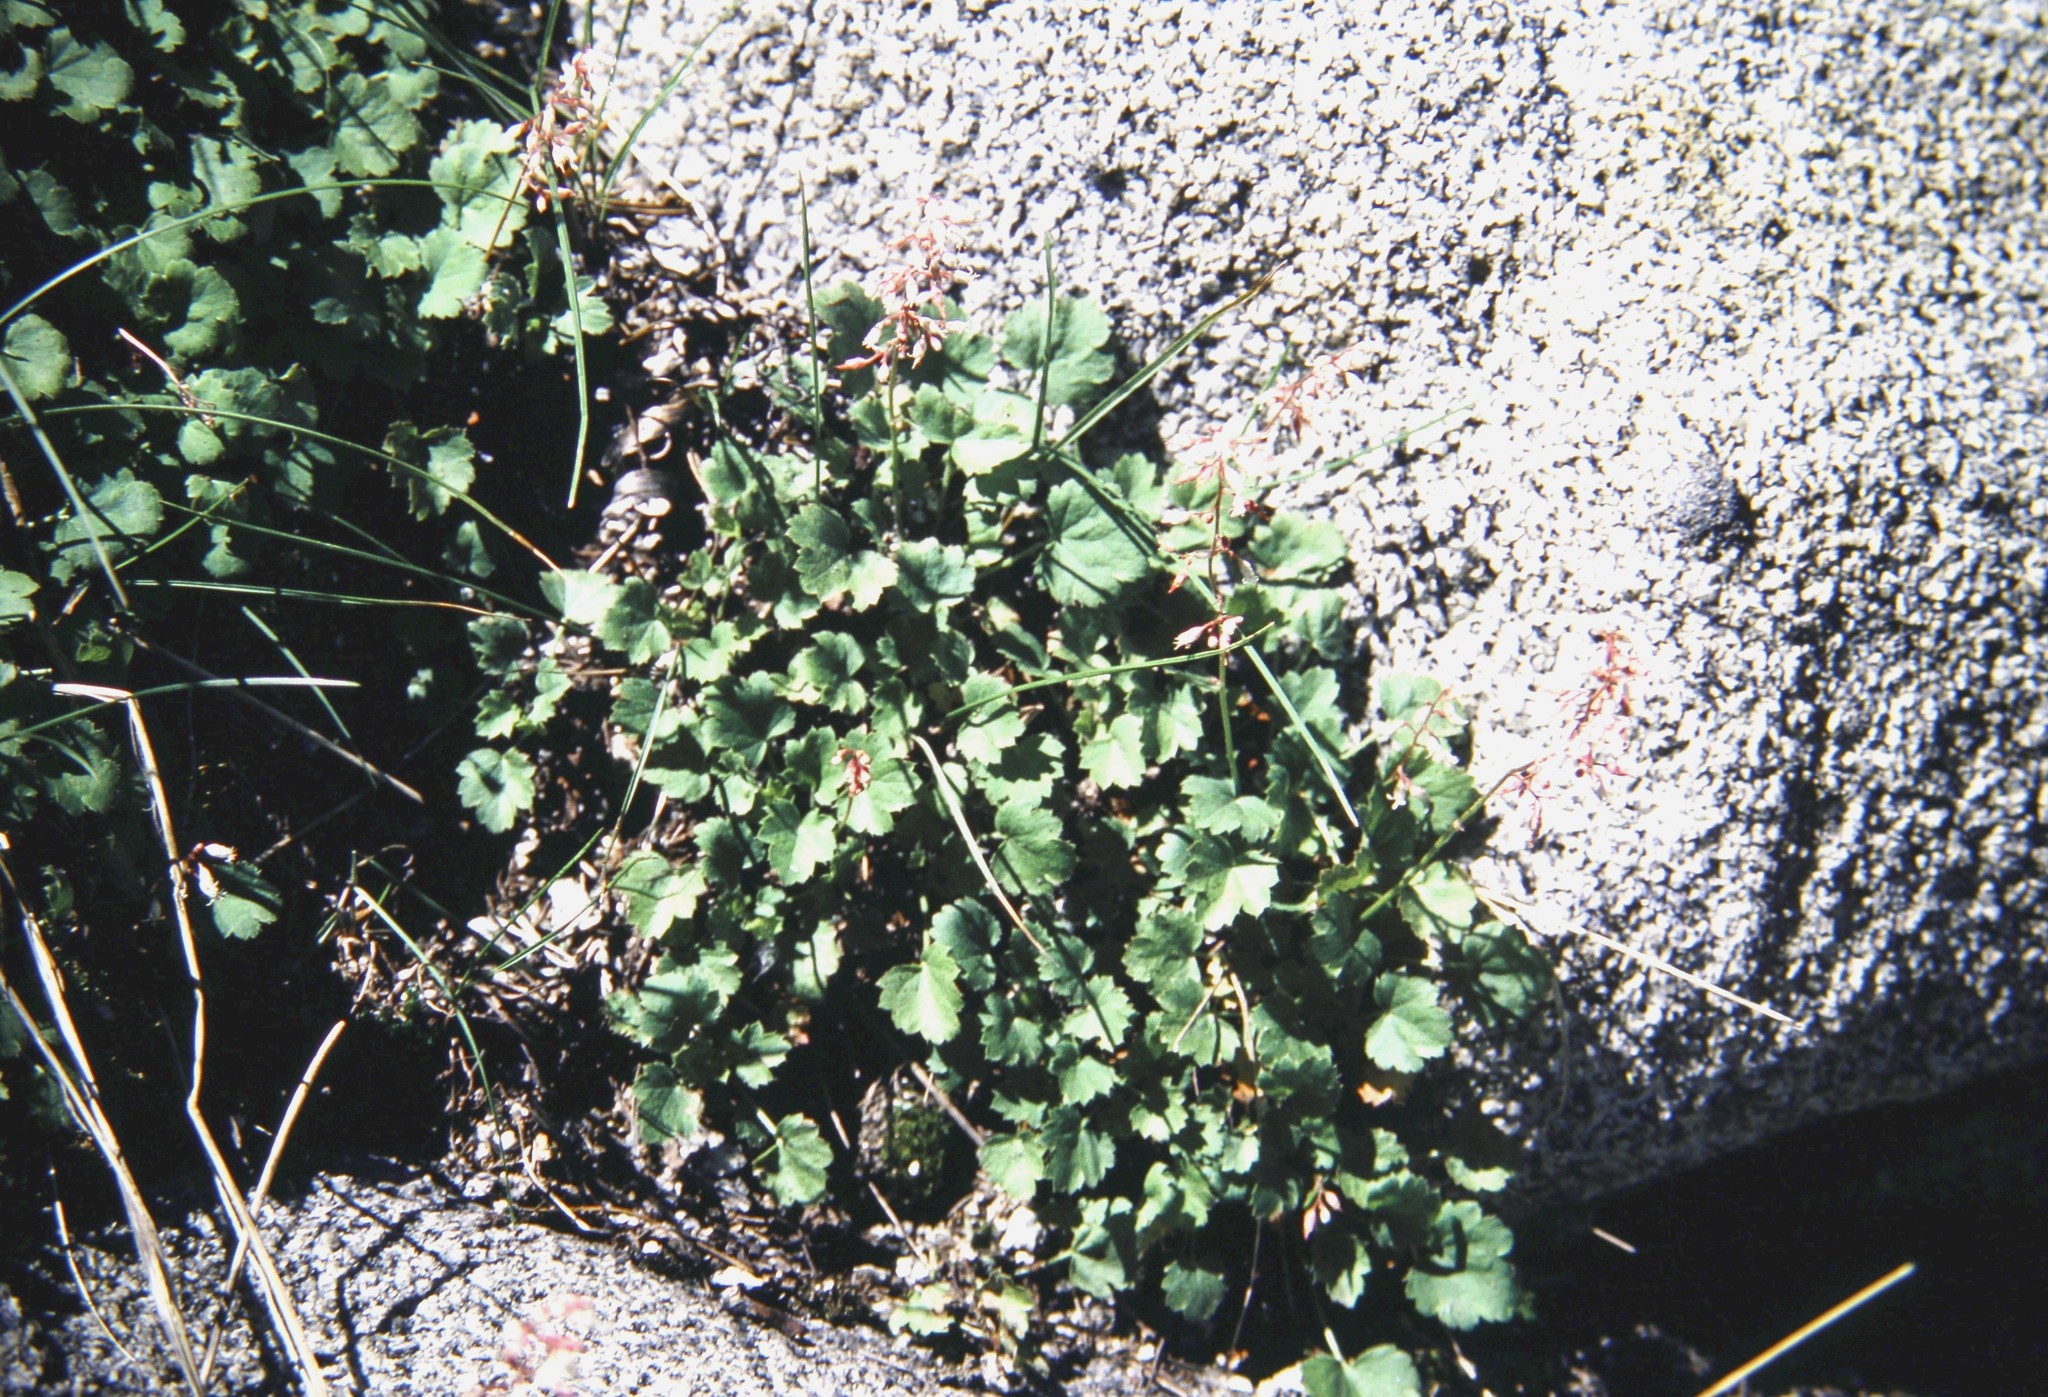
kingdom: Plantae
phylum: Tracheophyta
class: Magnoliopsida
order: Saxifragales
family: Saxifragaceae
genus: Heuchera
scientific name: Heuchera rubescens
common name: Jack-o'the-rocks
